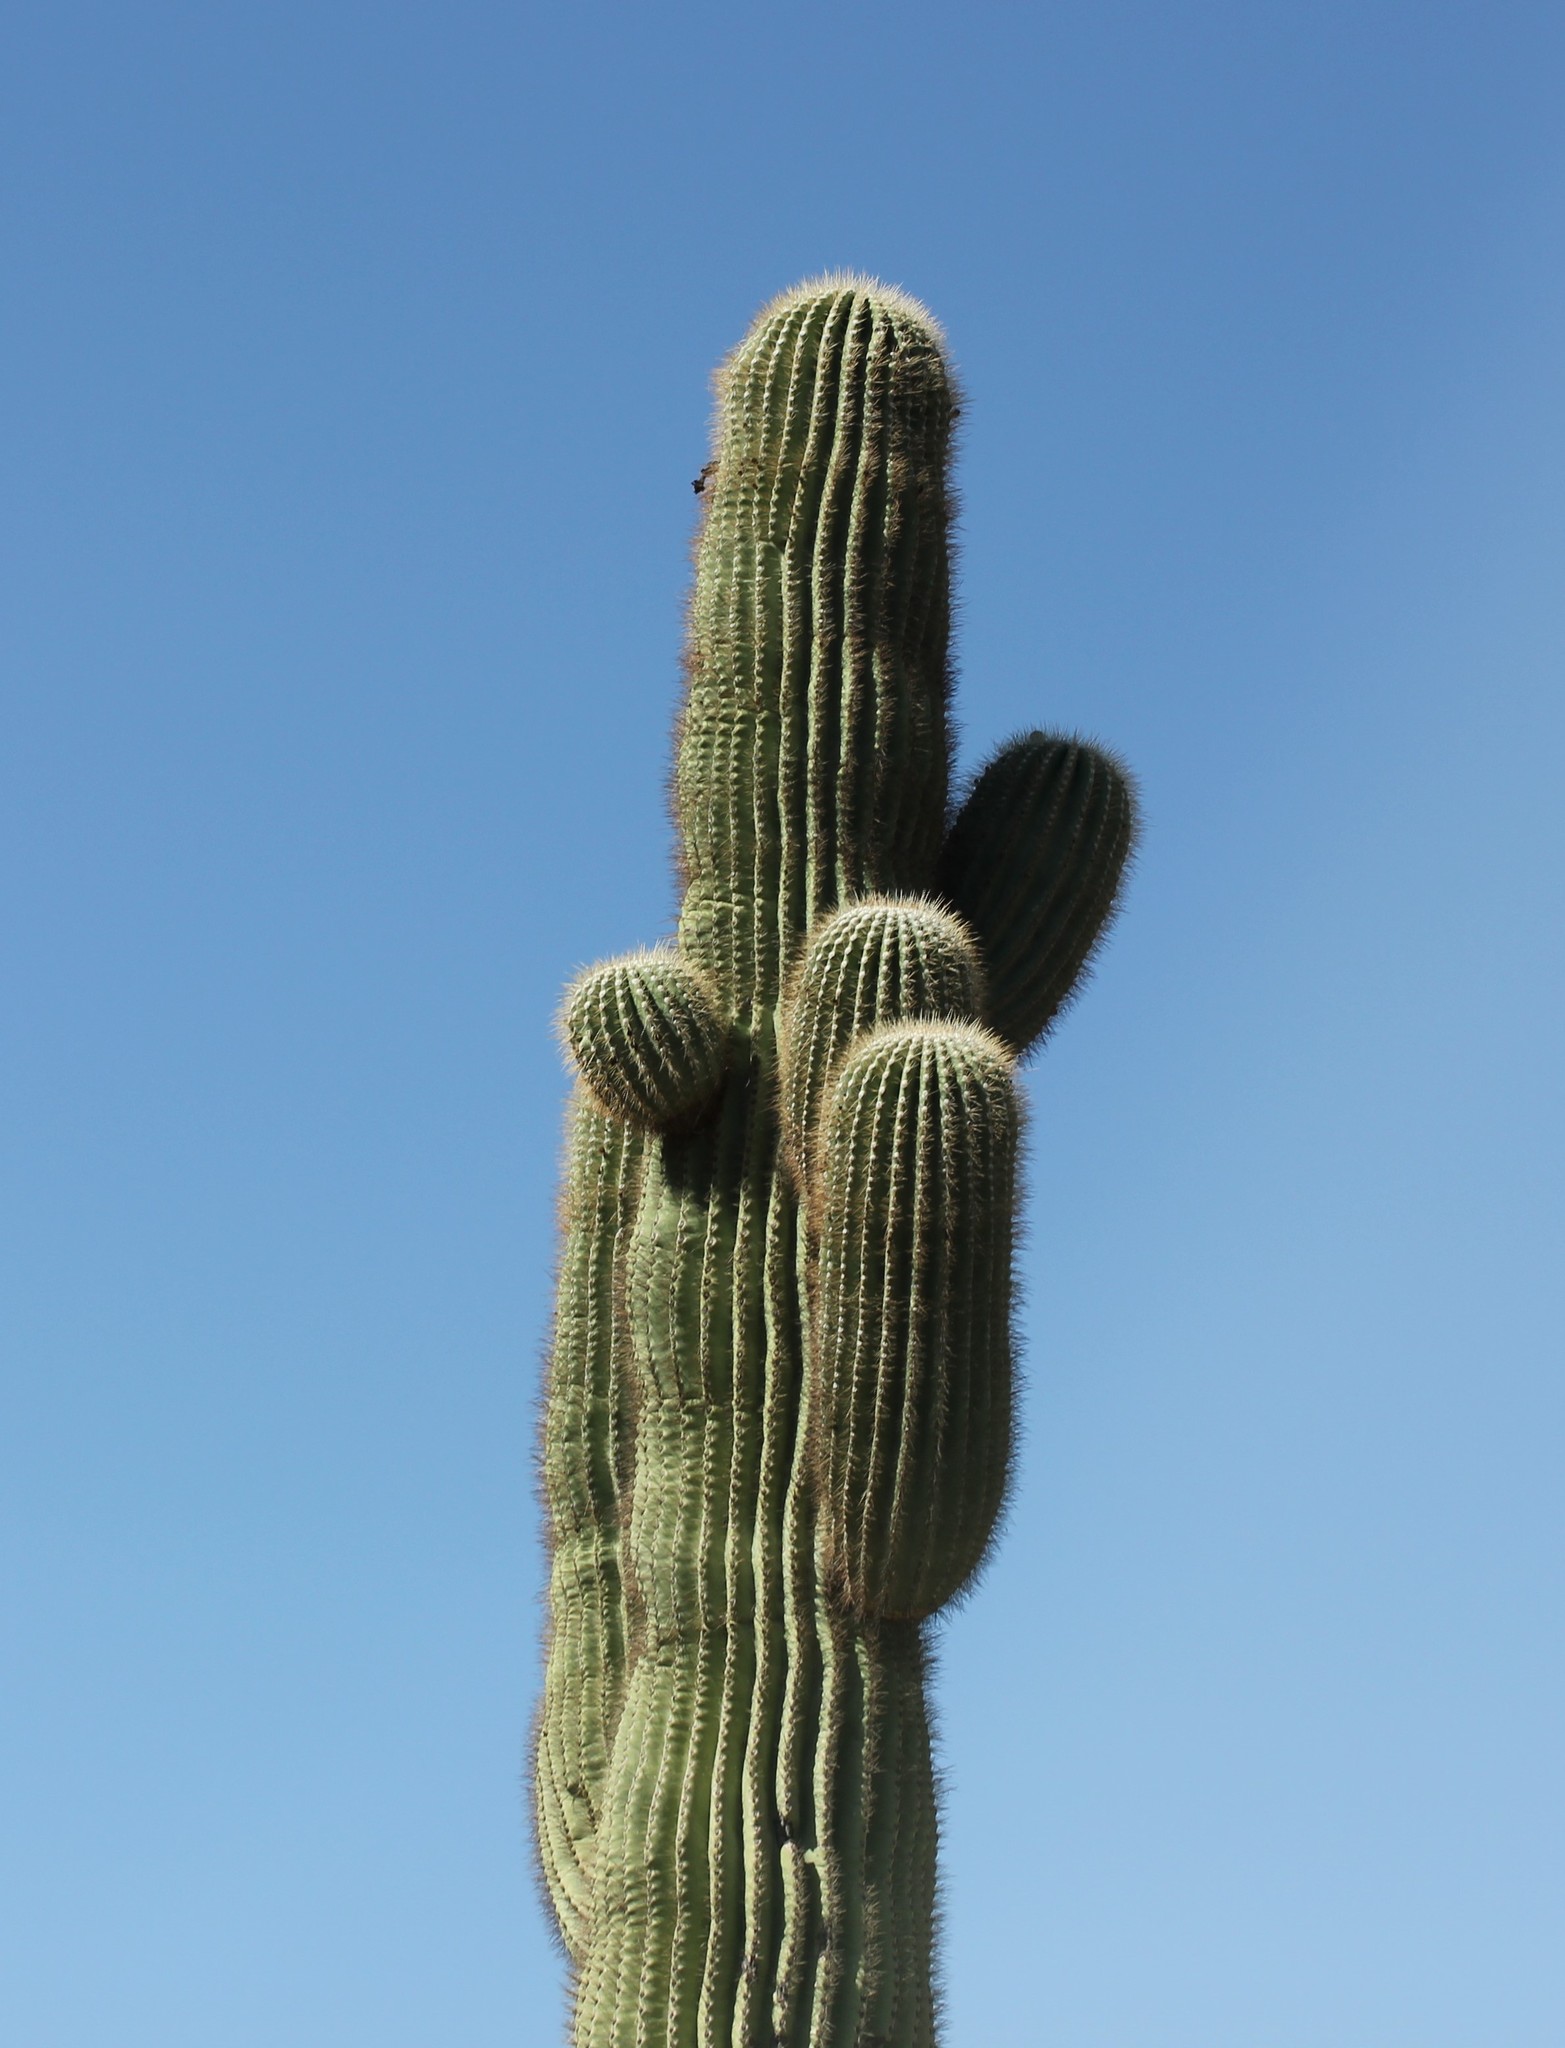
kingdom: Plantae
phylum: Tracheophyta
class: Magnoliopsida
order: Caryophyllales
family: Cactaceae
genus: Carnegiea
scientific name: Carnegiea gigantea
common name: Saguaro
